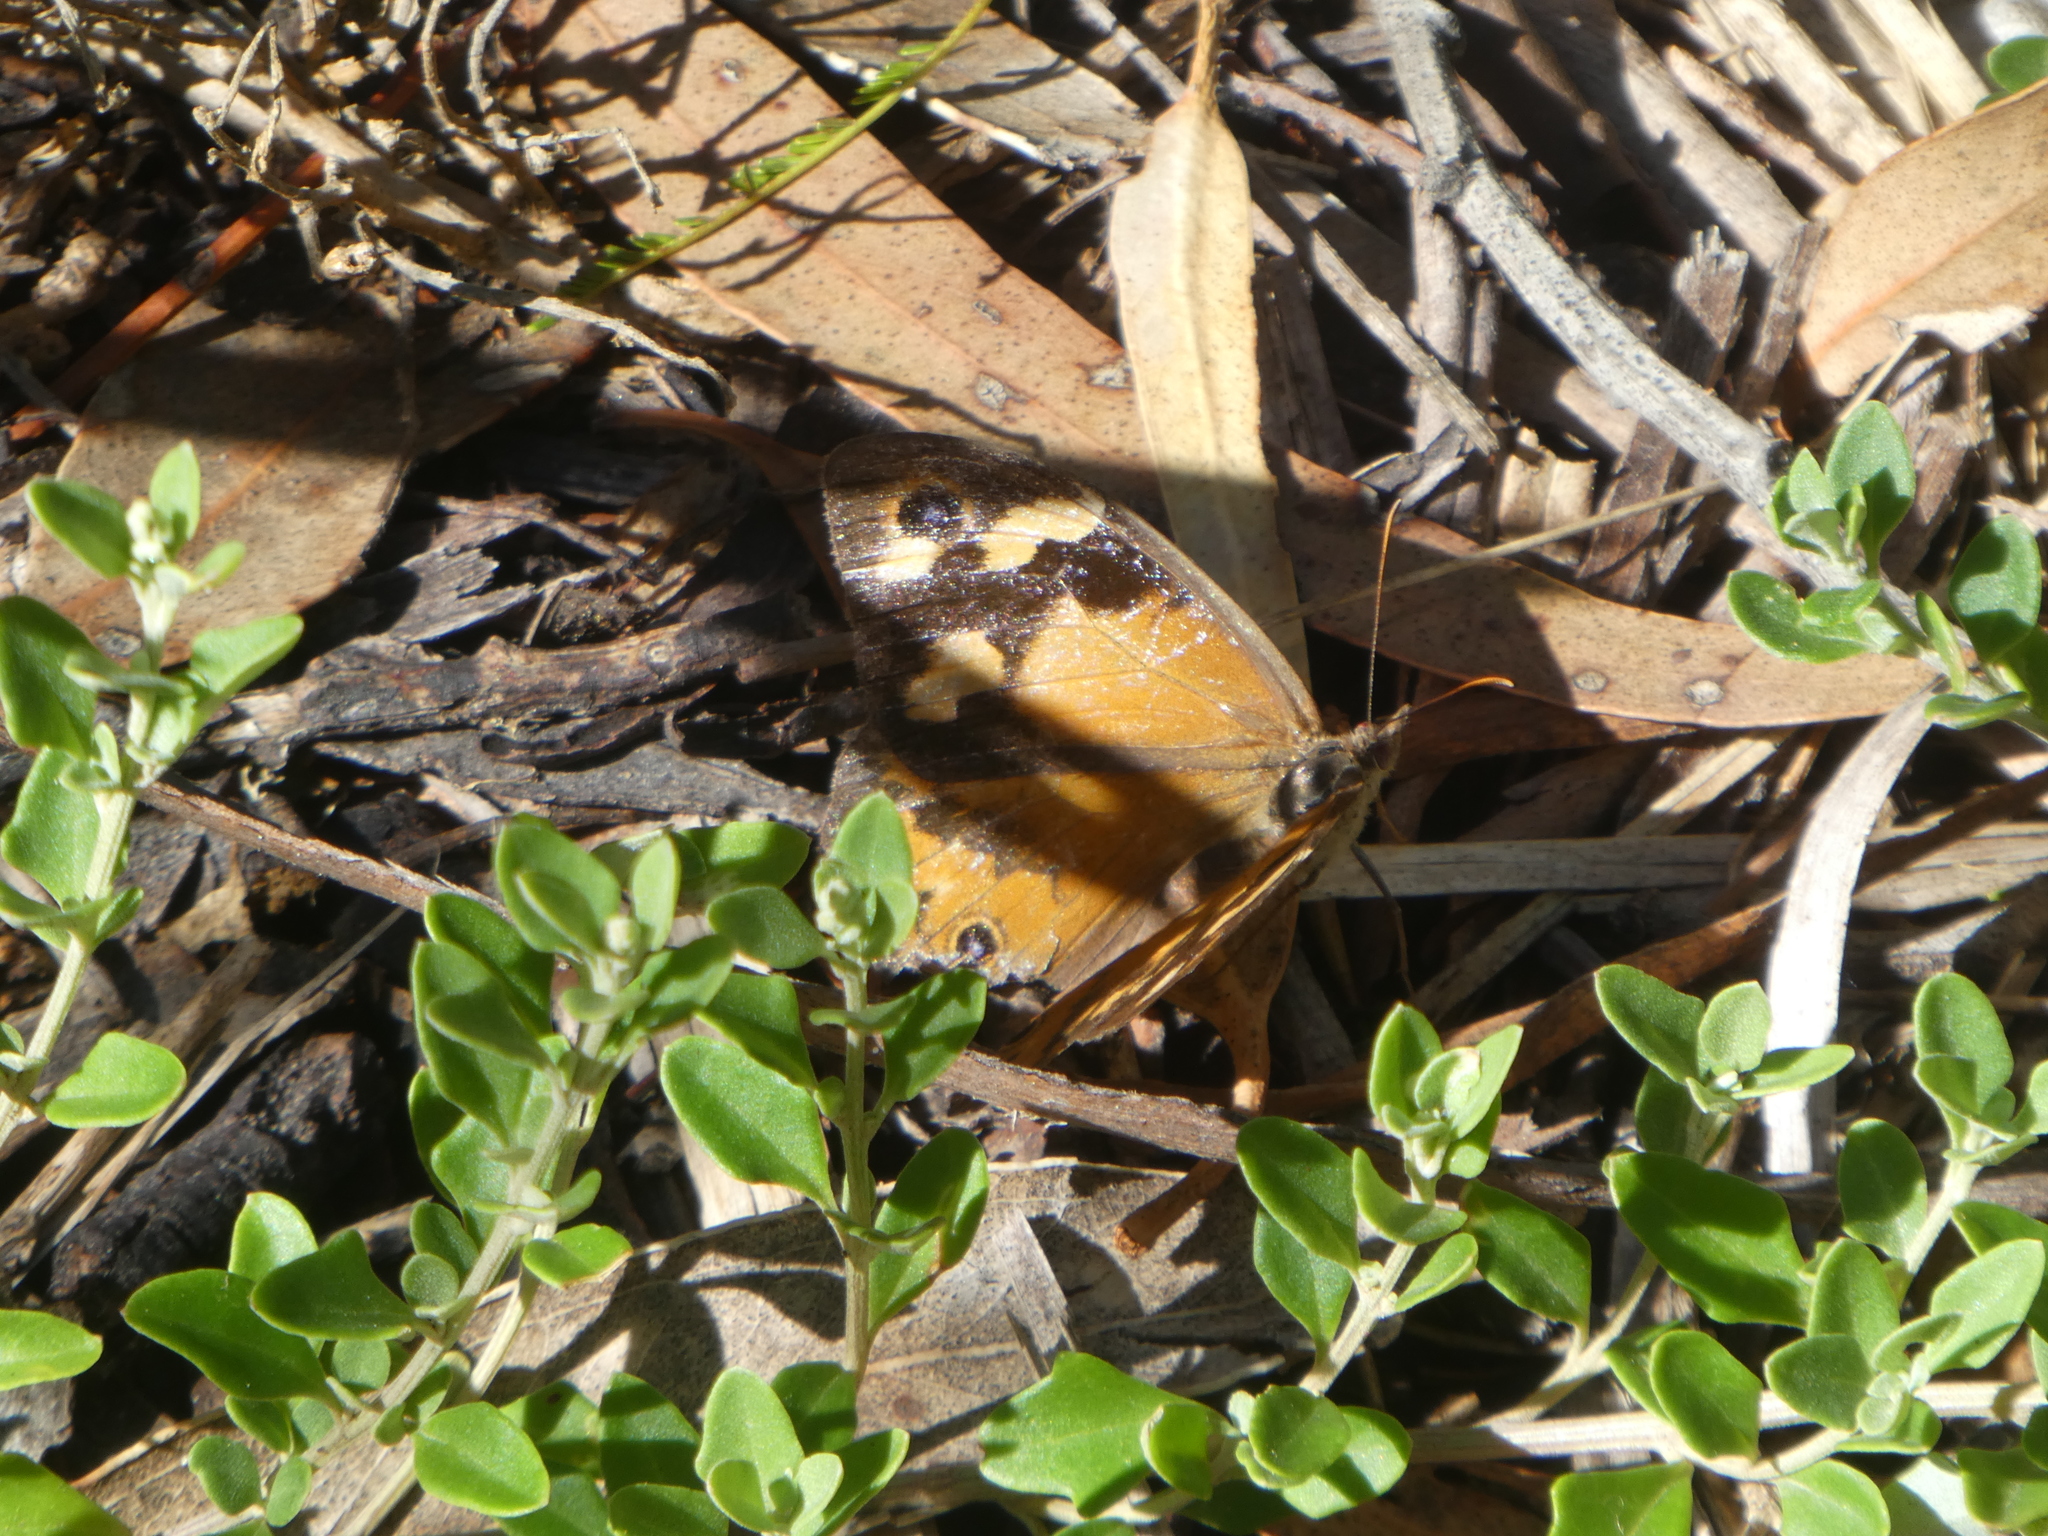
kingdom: Animalia
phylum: Arthropoda
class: Insecta
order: Lepidoptera
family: Nymphalidae
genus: Heteronympha
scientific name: Heteronympha merope
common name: Common brown
